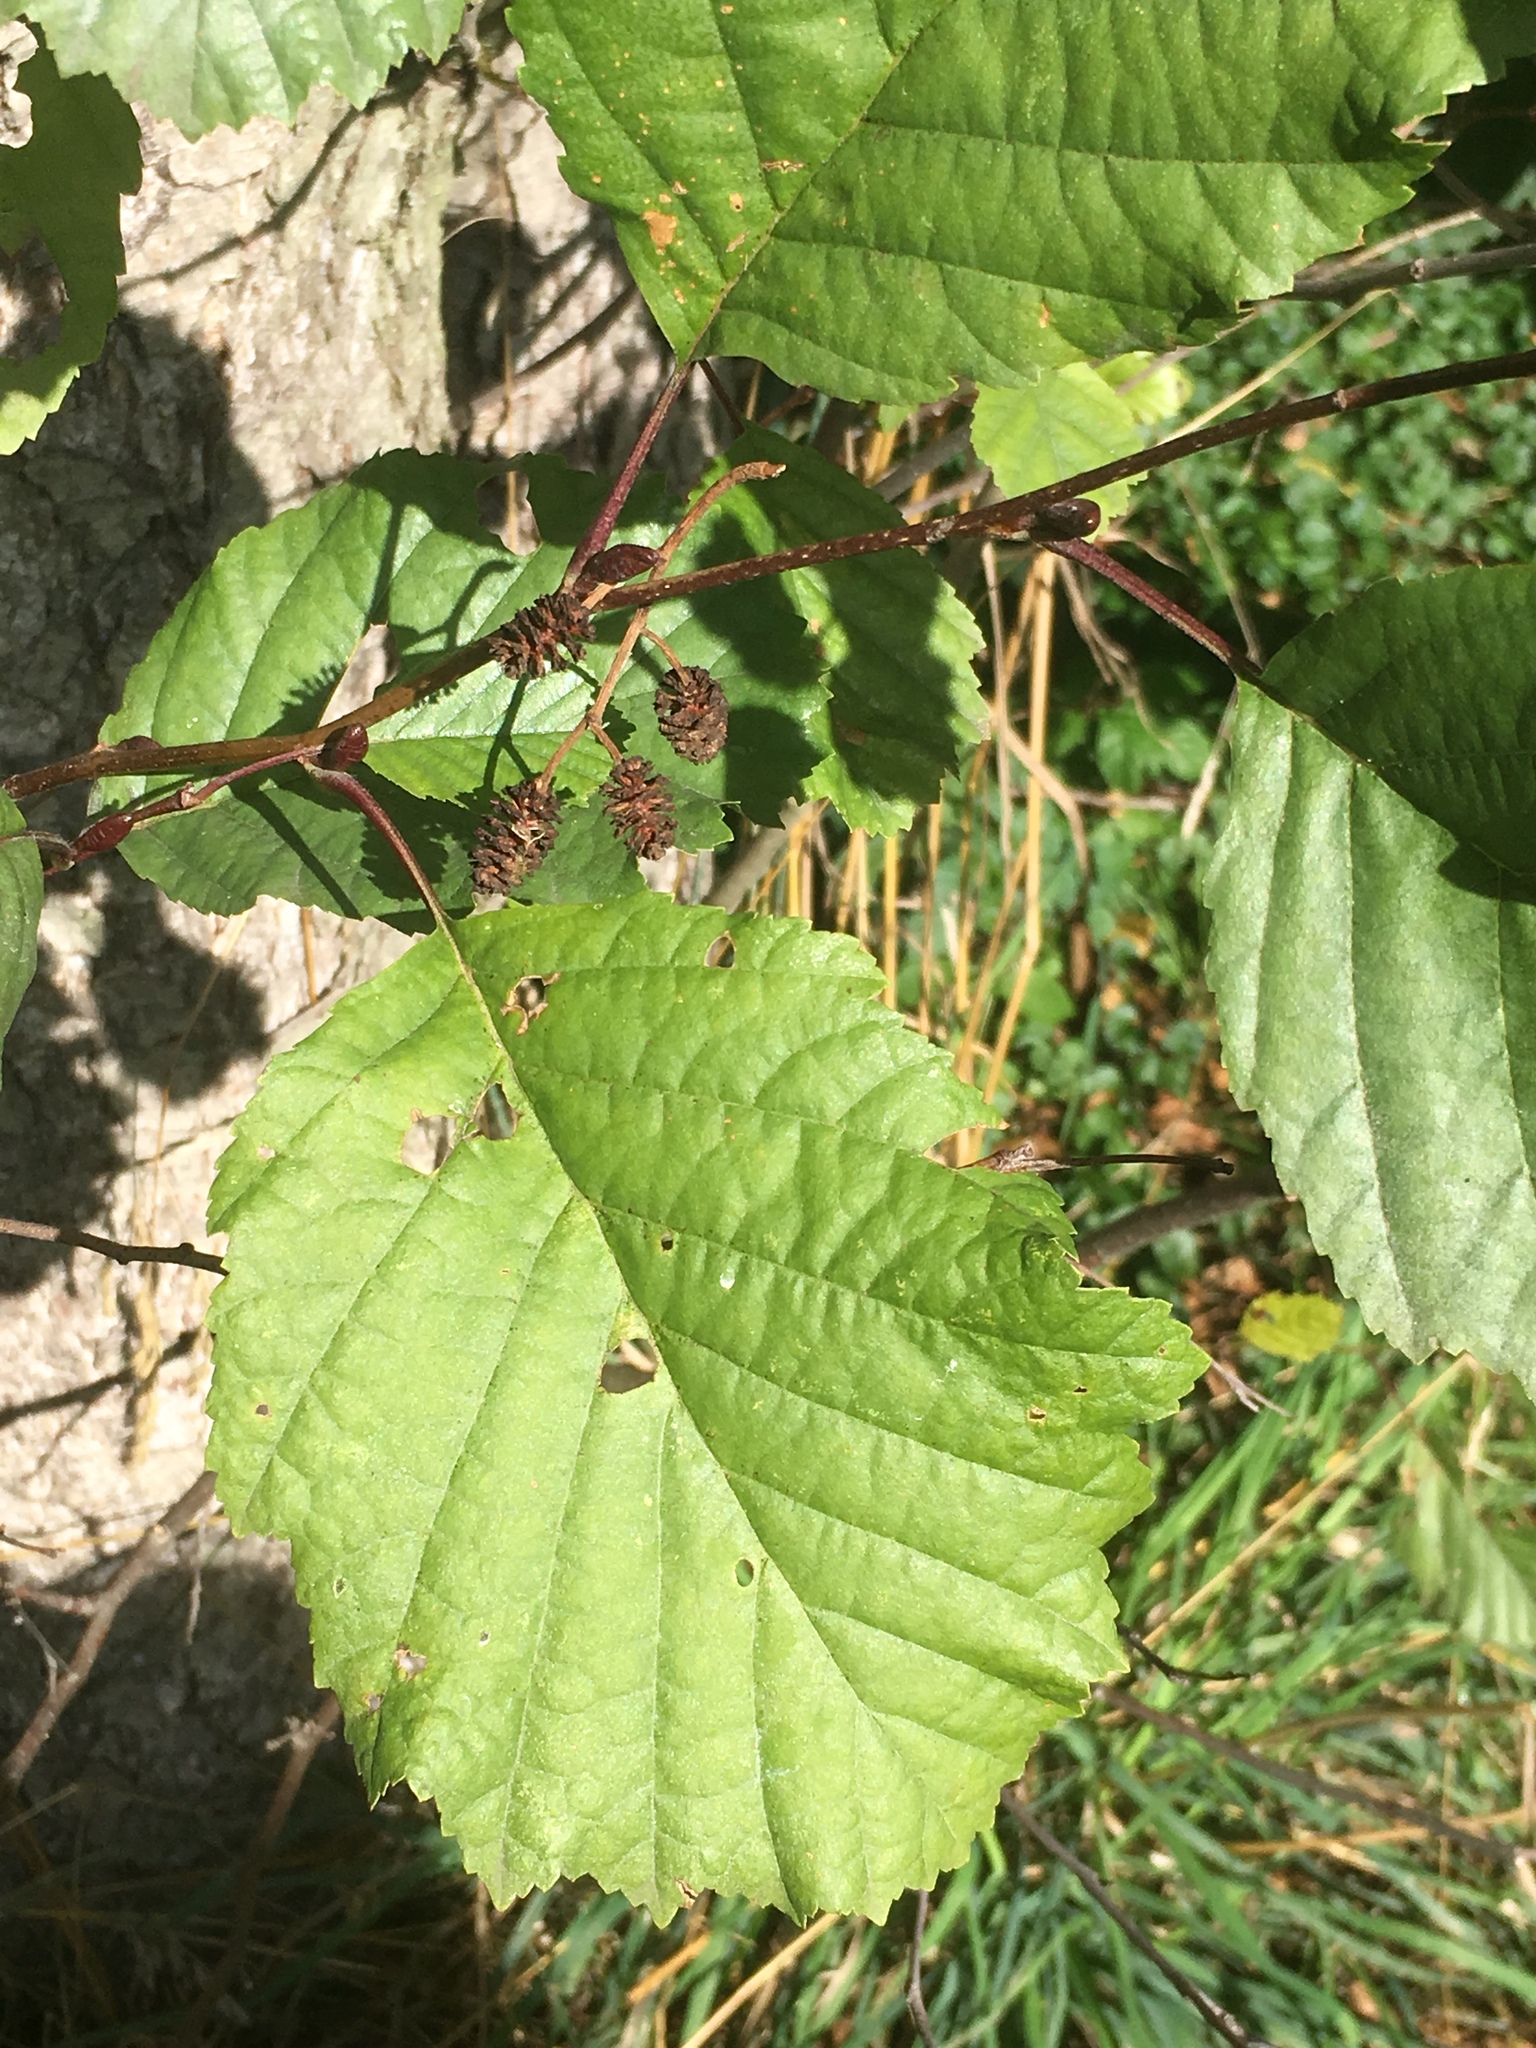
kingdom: Plantae
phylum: Tracheophyta
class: Magnoliopsida
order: Fagales
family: Betulaceae
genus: Alnus
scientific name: Alnus glutinosa
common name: Black alder
